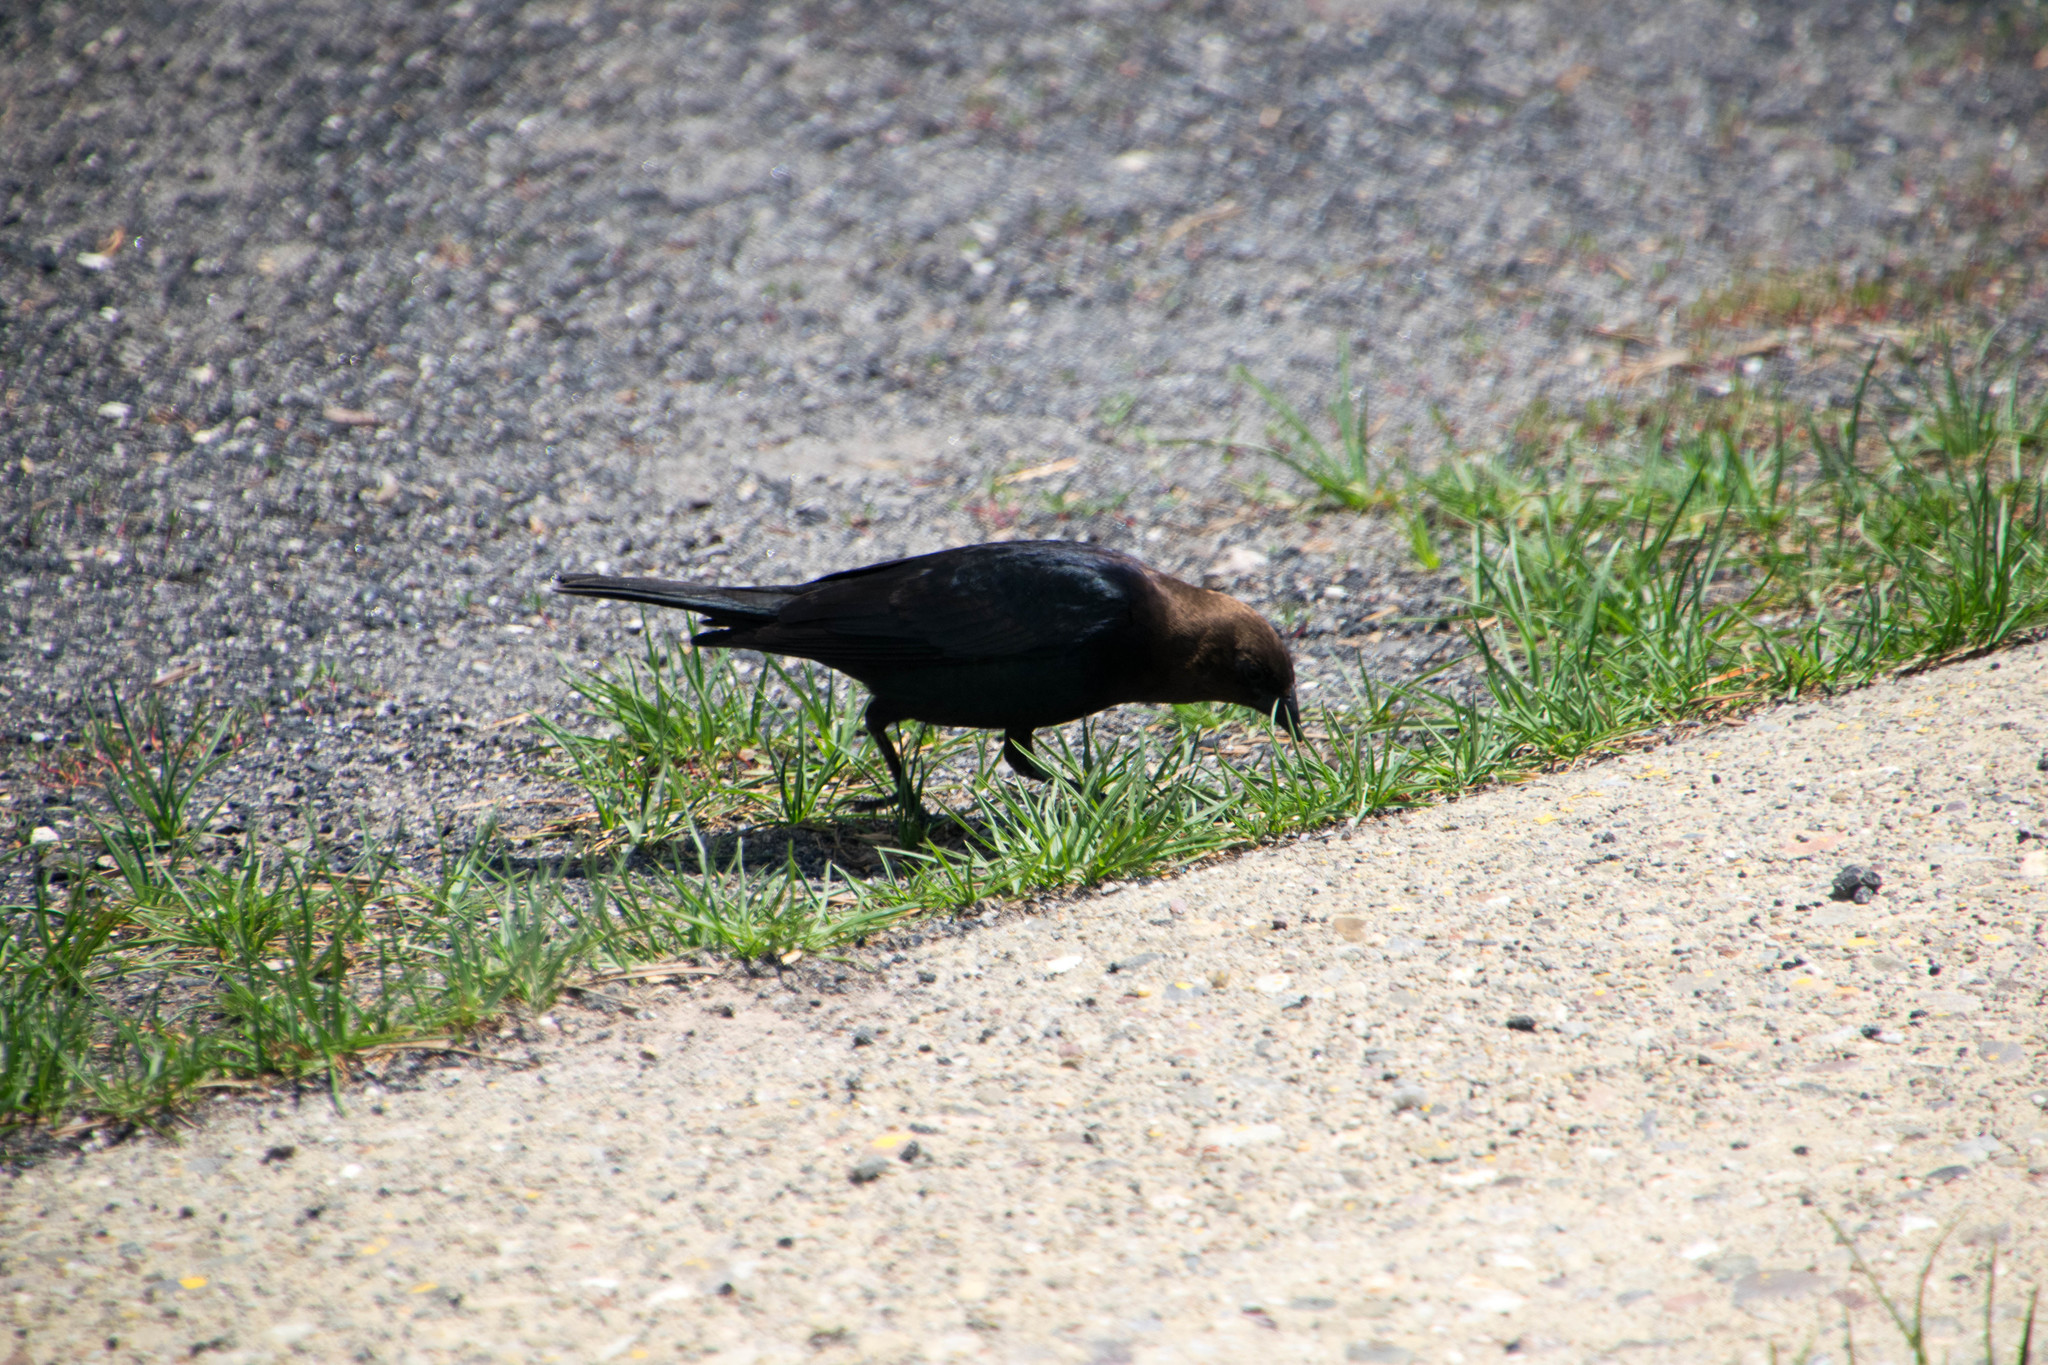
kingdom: Animalia
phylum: Chordata
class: Aves
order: Passeriformes
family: Icteridae
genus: Molothrus
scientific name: Molothrus ater
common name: Brown-headed cowbird
